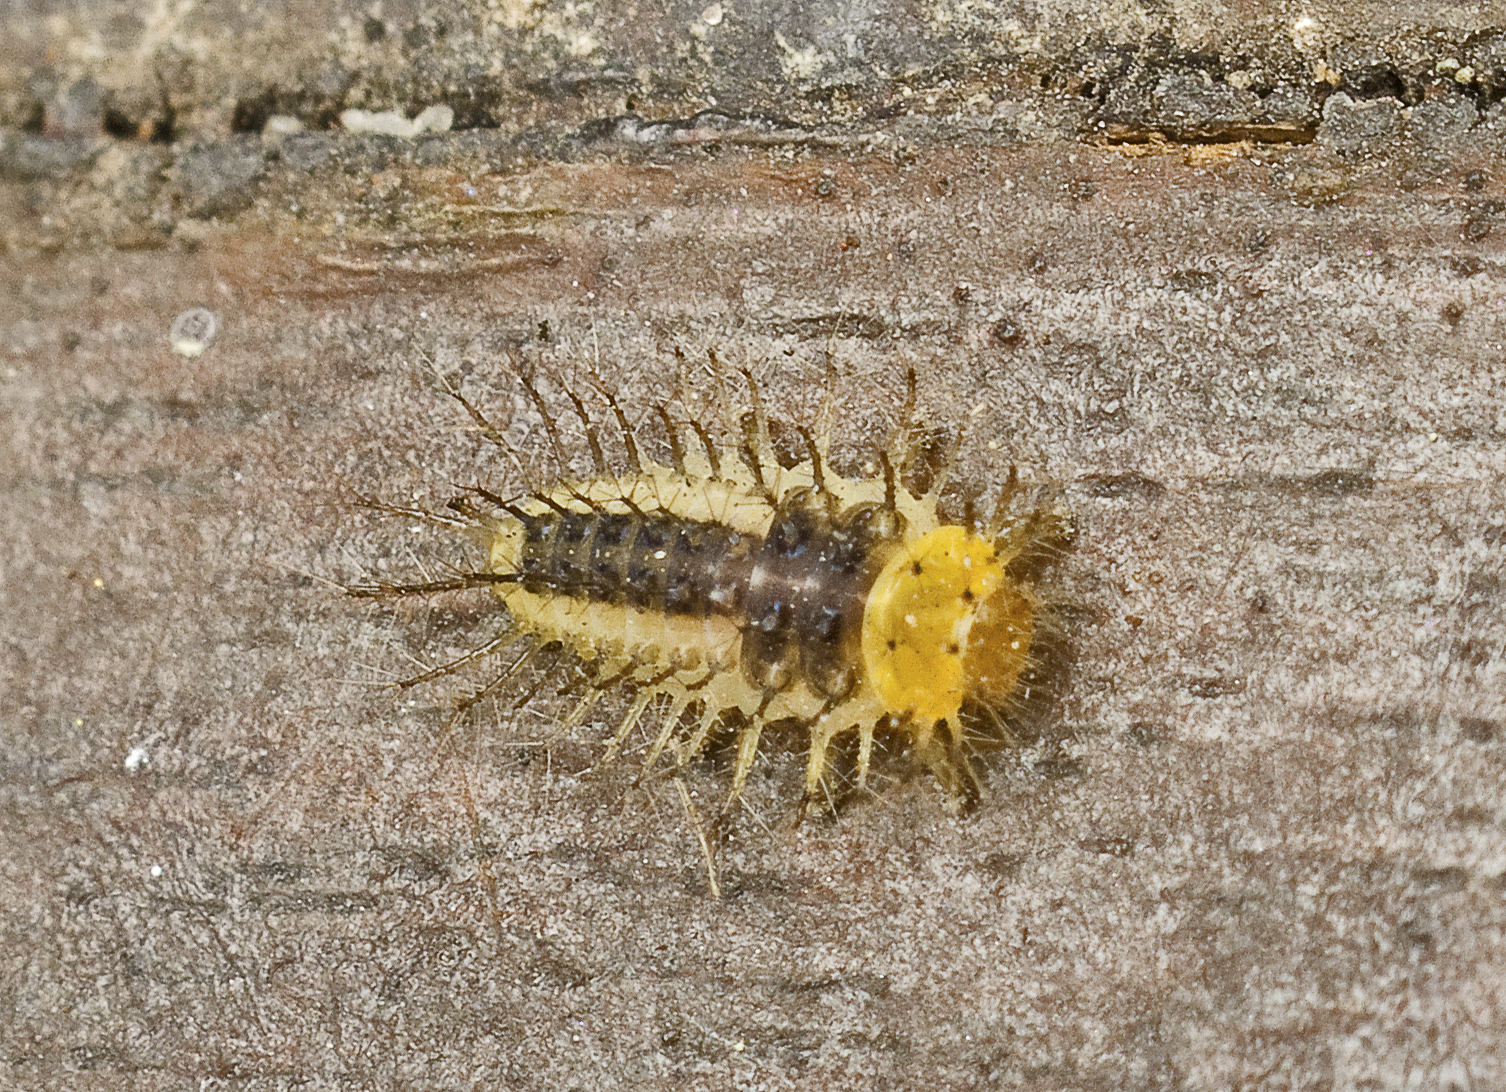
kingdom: Animalia
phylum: Arthropoda
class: Insecta
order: Coleoptera
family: Coccinellidae
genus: Halmus
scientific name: Halmus chalybeus
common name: Steel blue ladybird beetle
